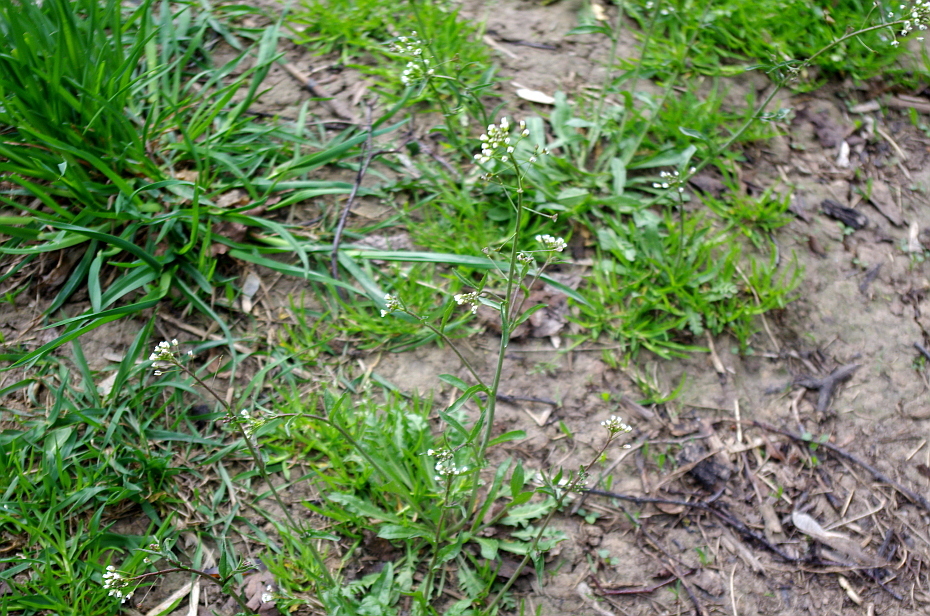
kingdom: Plantae
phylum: Tracheophyta
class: Magnoliopsida
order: Brassicales
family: Brassicaceae
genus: Capsella
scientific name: Capsella bursa-pastoris
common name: Shepherd's purse
